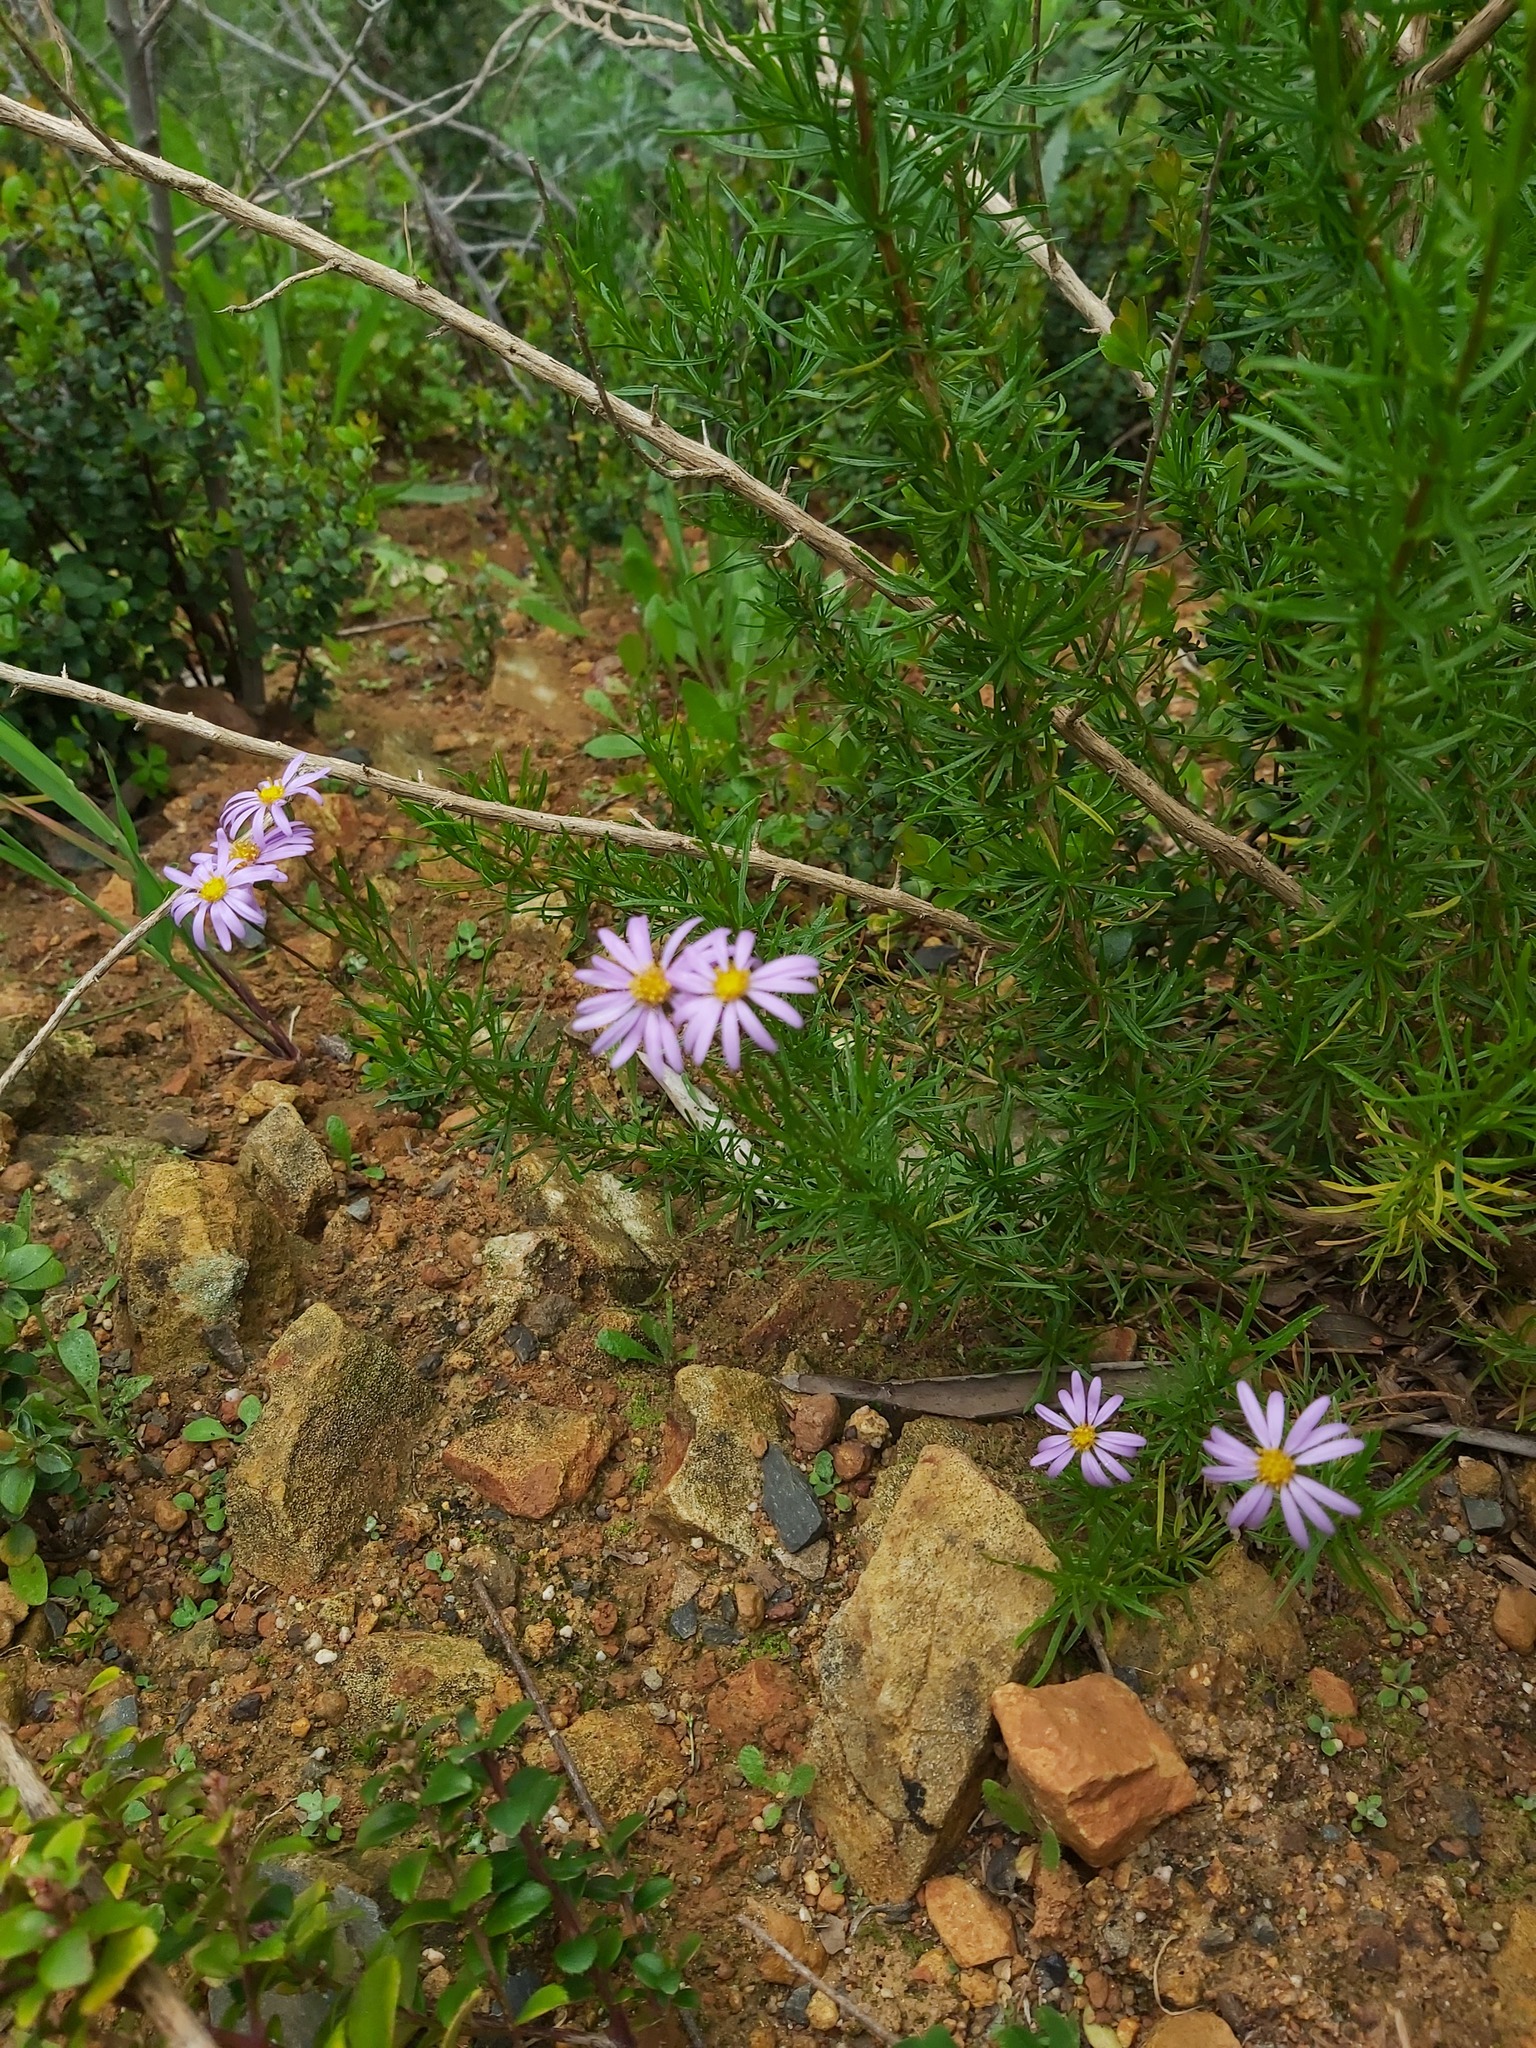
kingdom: Plantae
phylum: Tracheophyta
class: Magnoliopsida
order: Asterales
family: Asteraceae
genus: Felicia
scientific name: Felicia filifolia
